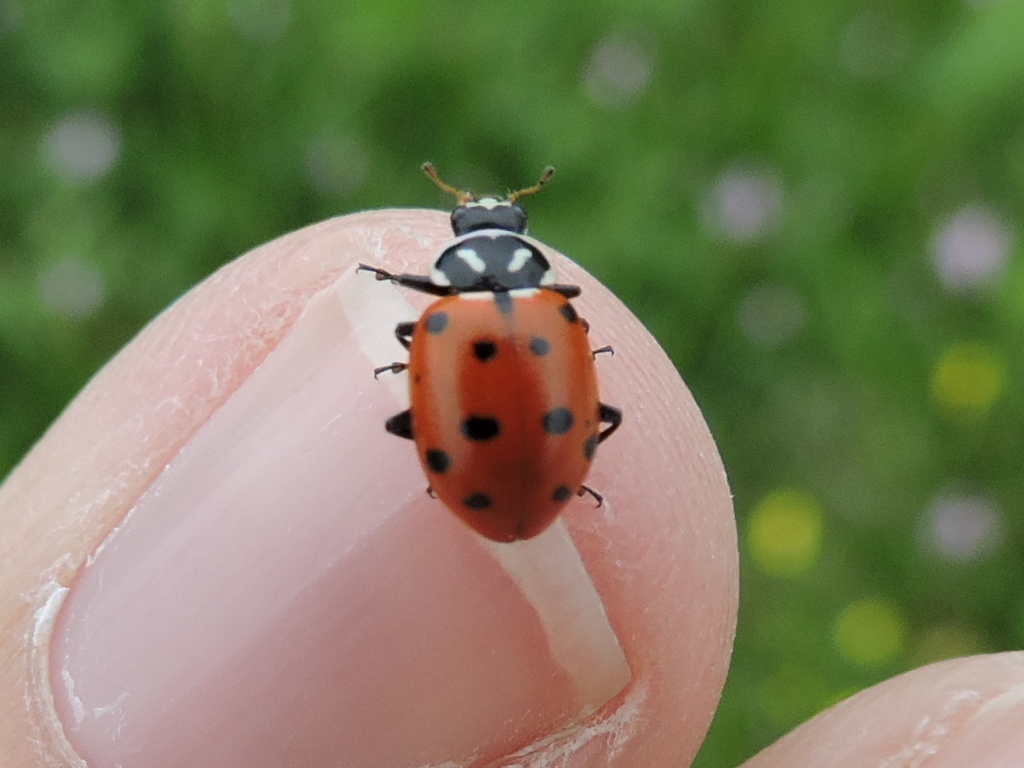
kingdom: Animalia
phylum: Arthropoda
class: Insecta
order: Coleoptera
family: Coccinellidae
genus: Hippodamia
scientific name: Hippodamia convergens
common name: Convergent lady beetle
